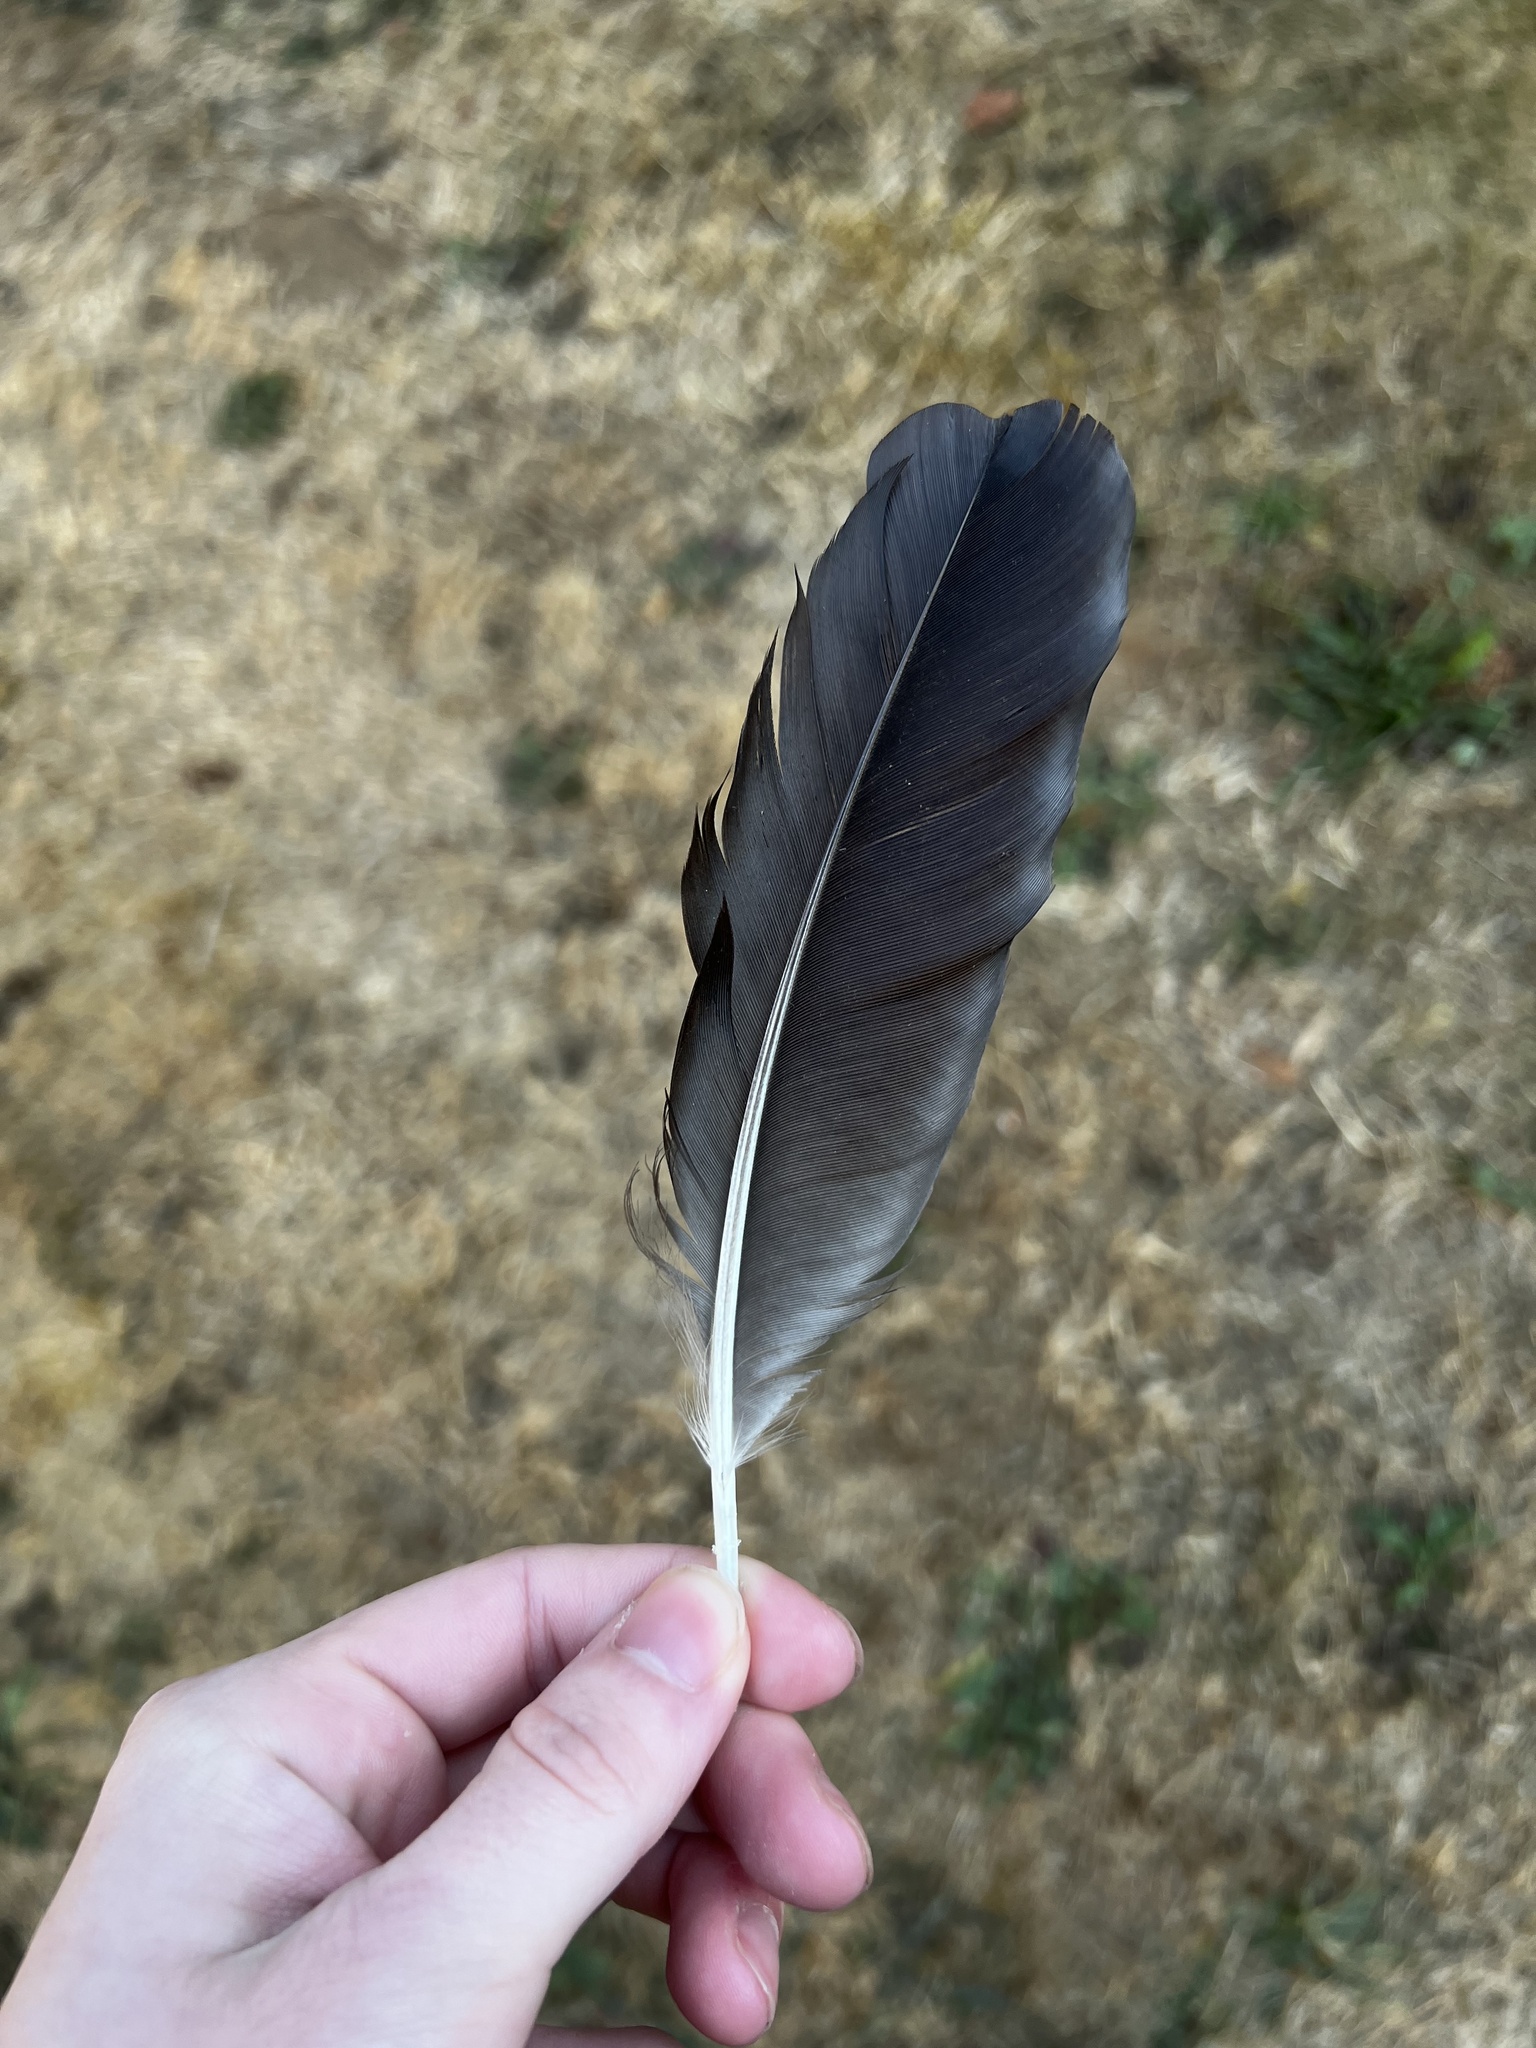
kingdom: Animalia
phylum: Chordata
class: Aves
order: Passeriformes
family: Corvidae
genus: Corvus
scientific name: Corvus brachyrhynchos
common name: American crow
